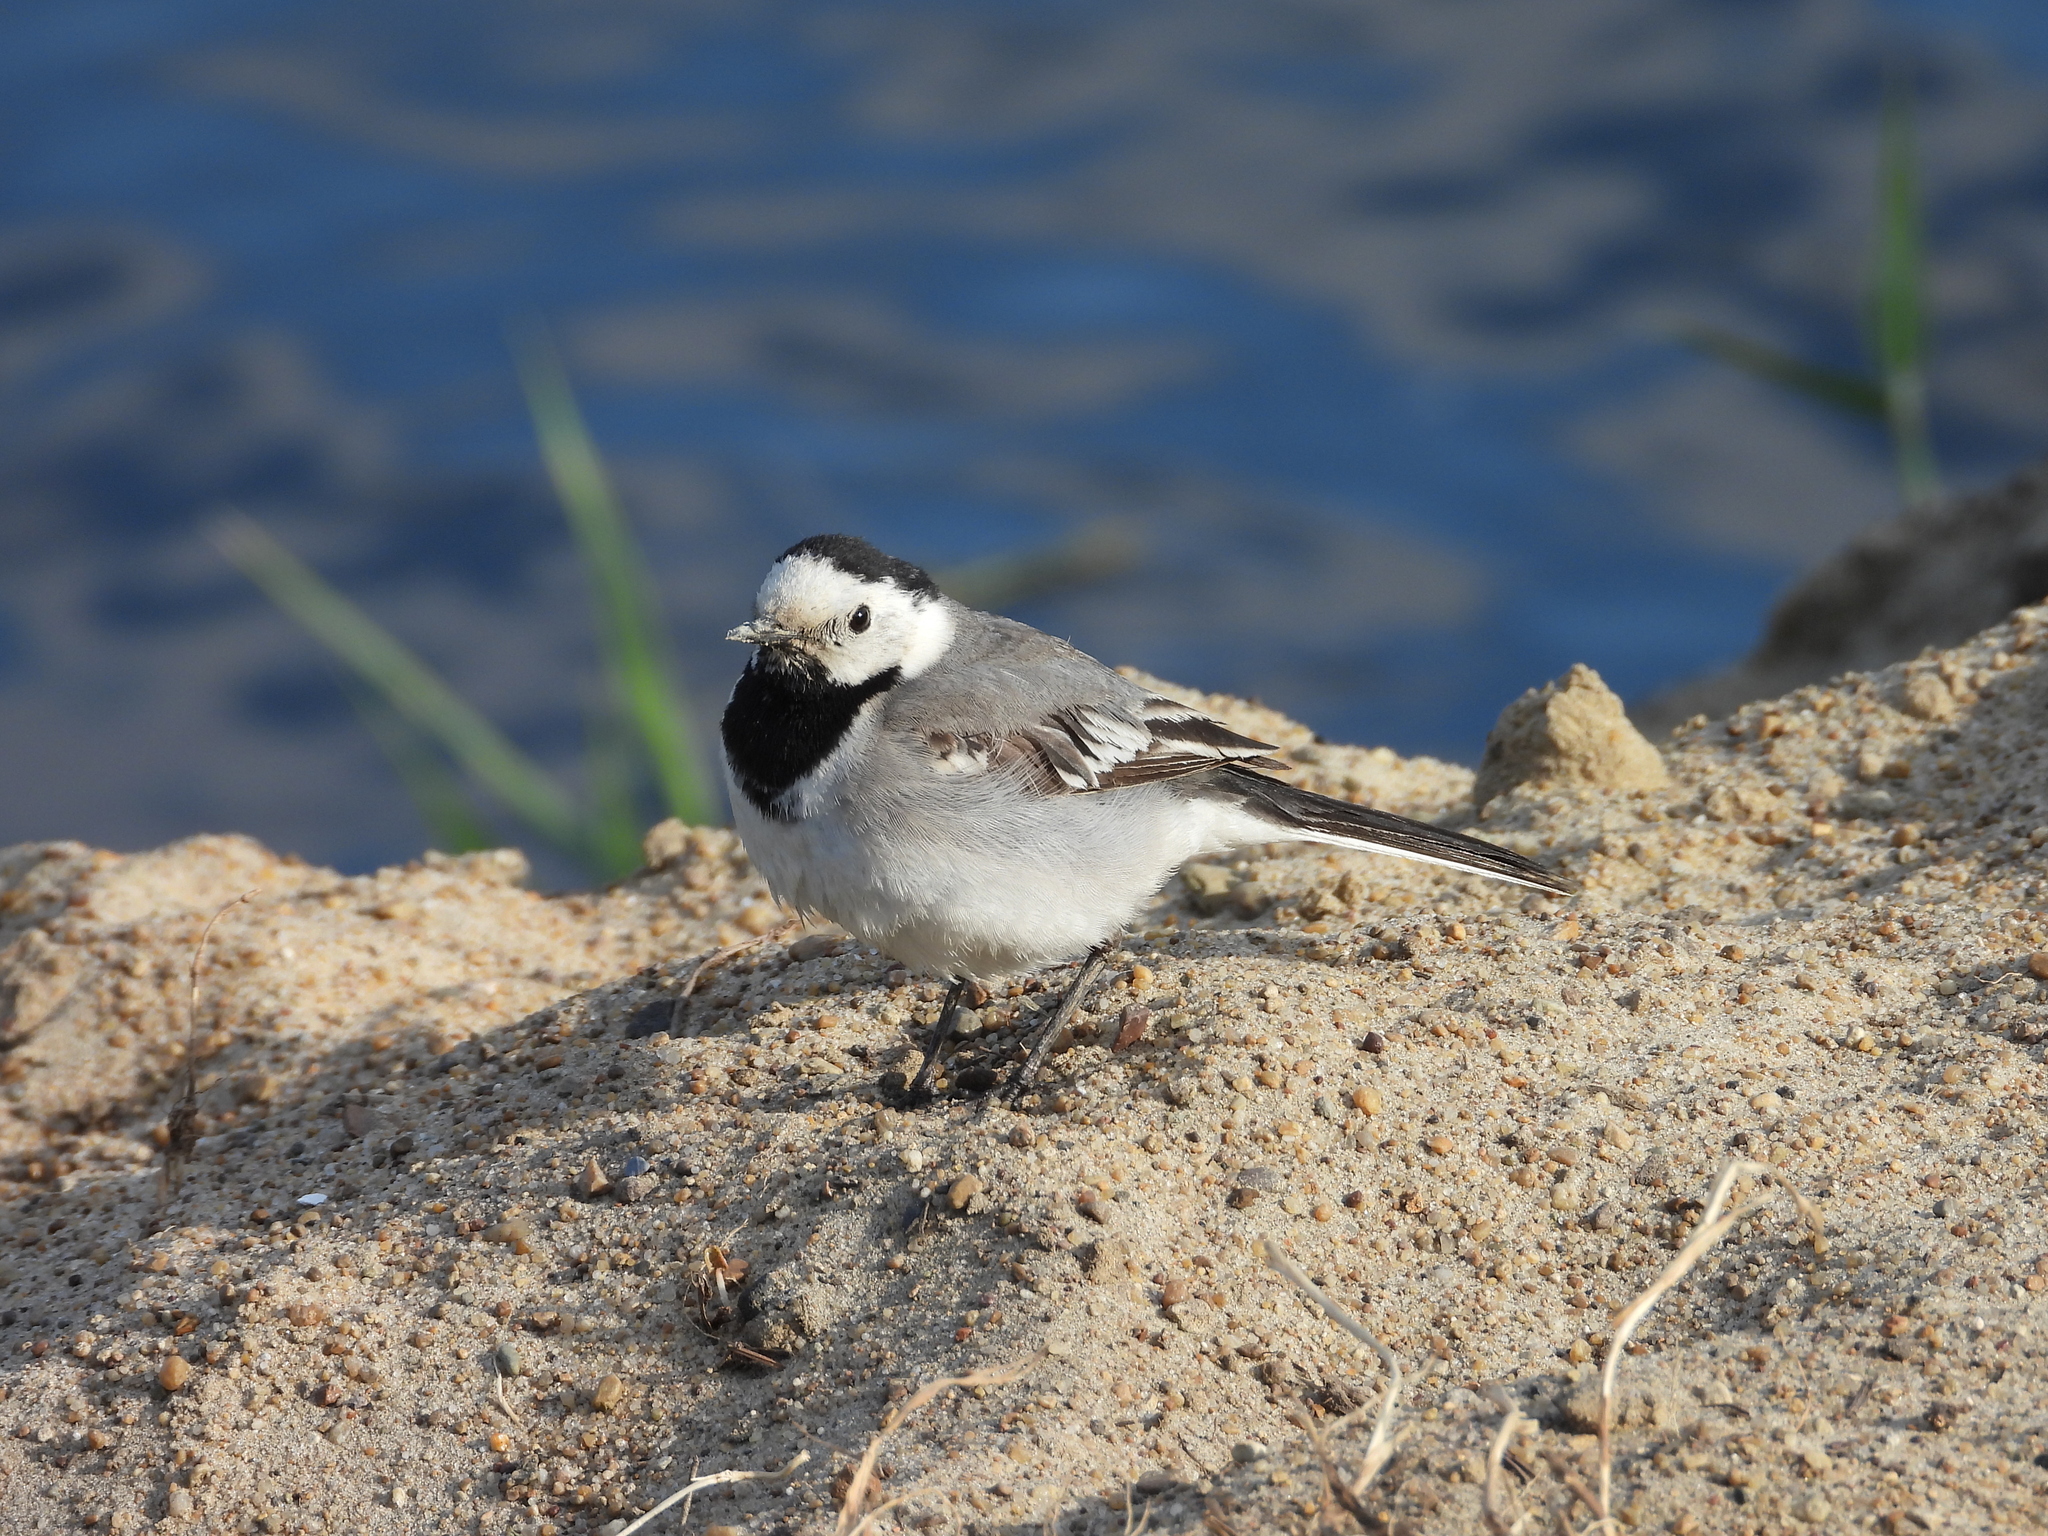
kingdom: Animalia
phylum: Chordata
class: Aves
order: Passeriformes
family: Motacillidae
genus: Motacilla
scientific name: Motacilla alba
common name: White wagtail
